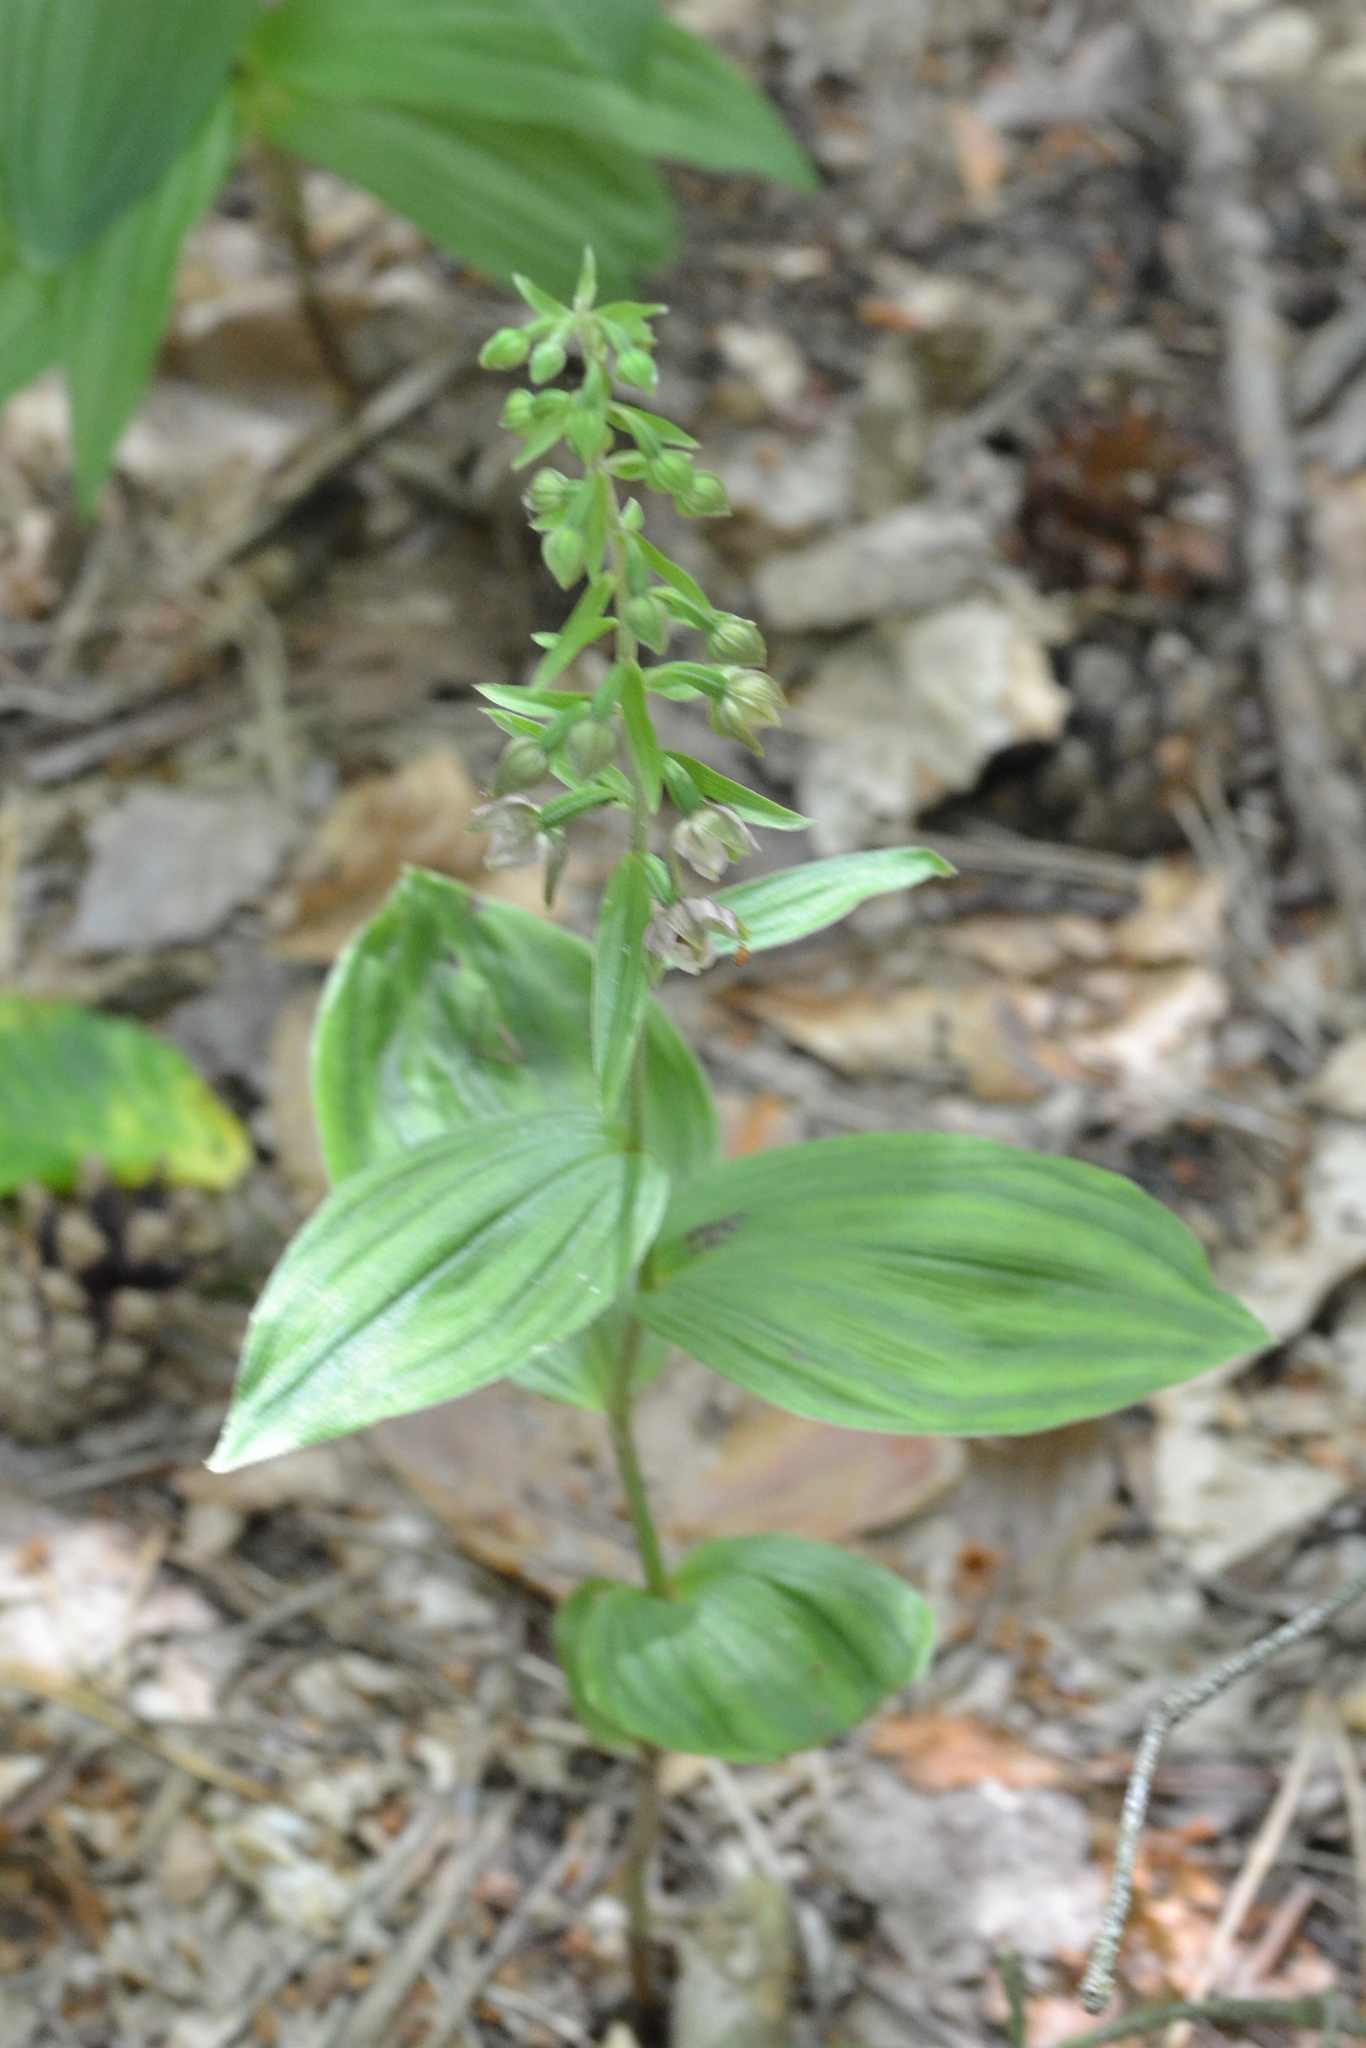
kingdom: Plantae
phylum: Tracheophyta
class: Liliopsida
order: Asparagales
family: Orchidaceae
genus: Epipactis
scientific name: Epipactis helleborine
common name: Broad-leaved helleborine
